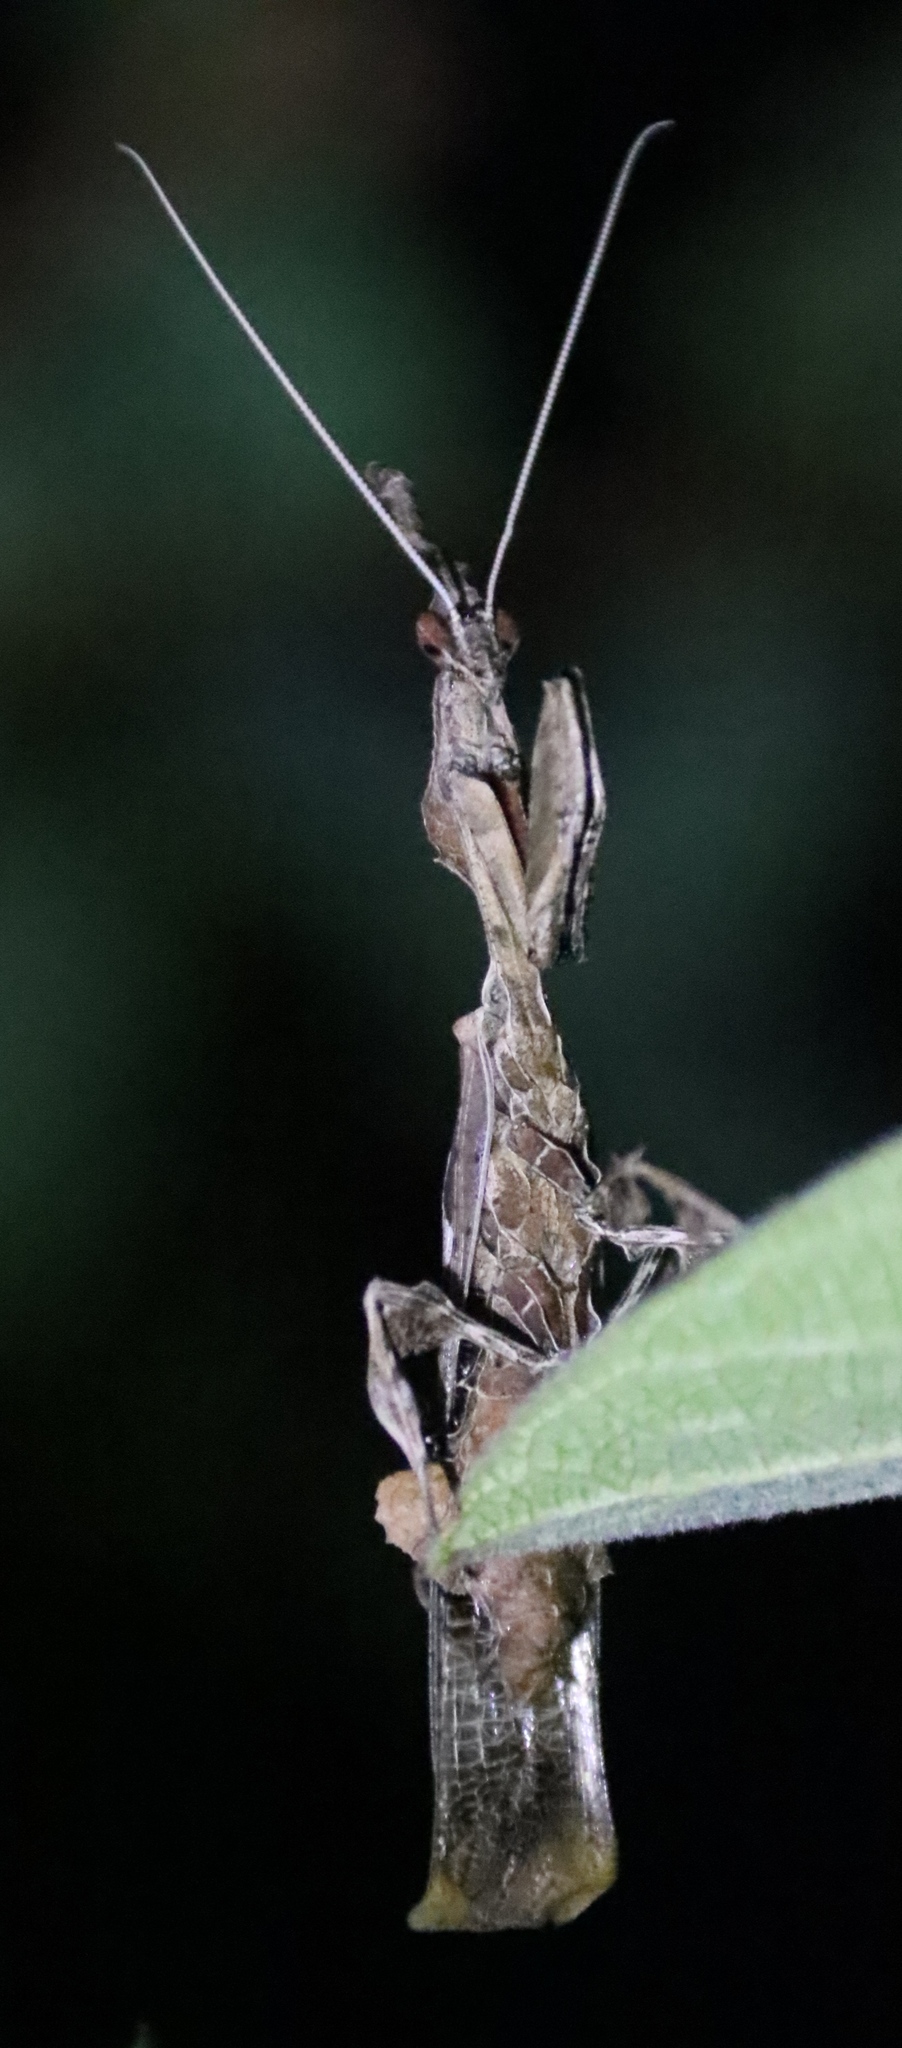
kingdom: Animalia
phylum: Arthropoda
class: Insecta
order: Mantodea
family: Hymenopodidae
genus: Phyllocrania
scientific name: Phyllocrania paradoxa
